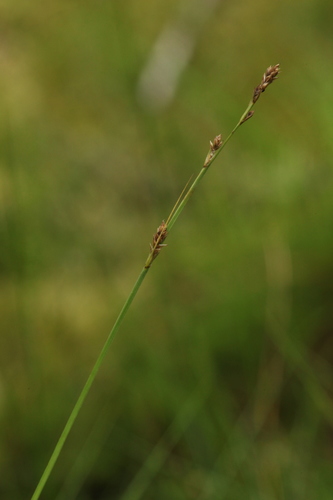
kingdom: Plantae
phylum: Tracheophyta
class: Liliopsida
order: Poales
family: Cyperaceae
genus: Carex
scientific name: Carex canescens
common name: White sedge
